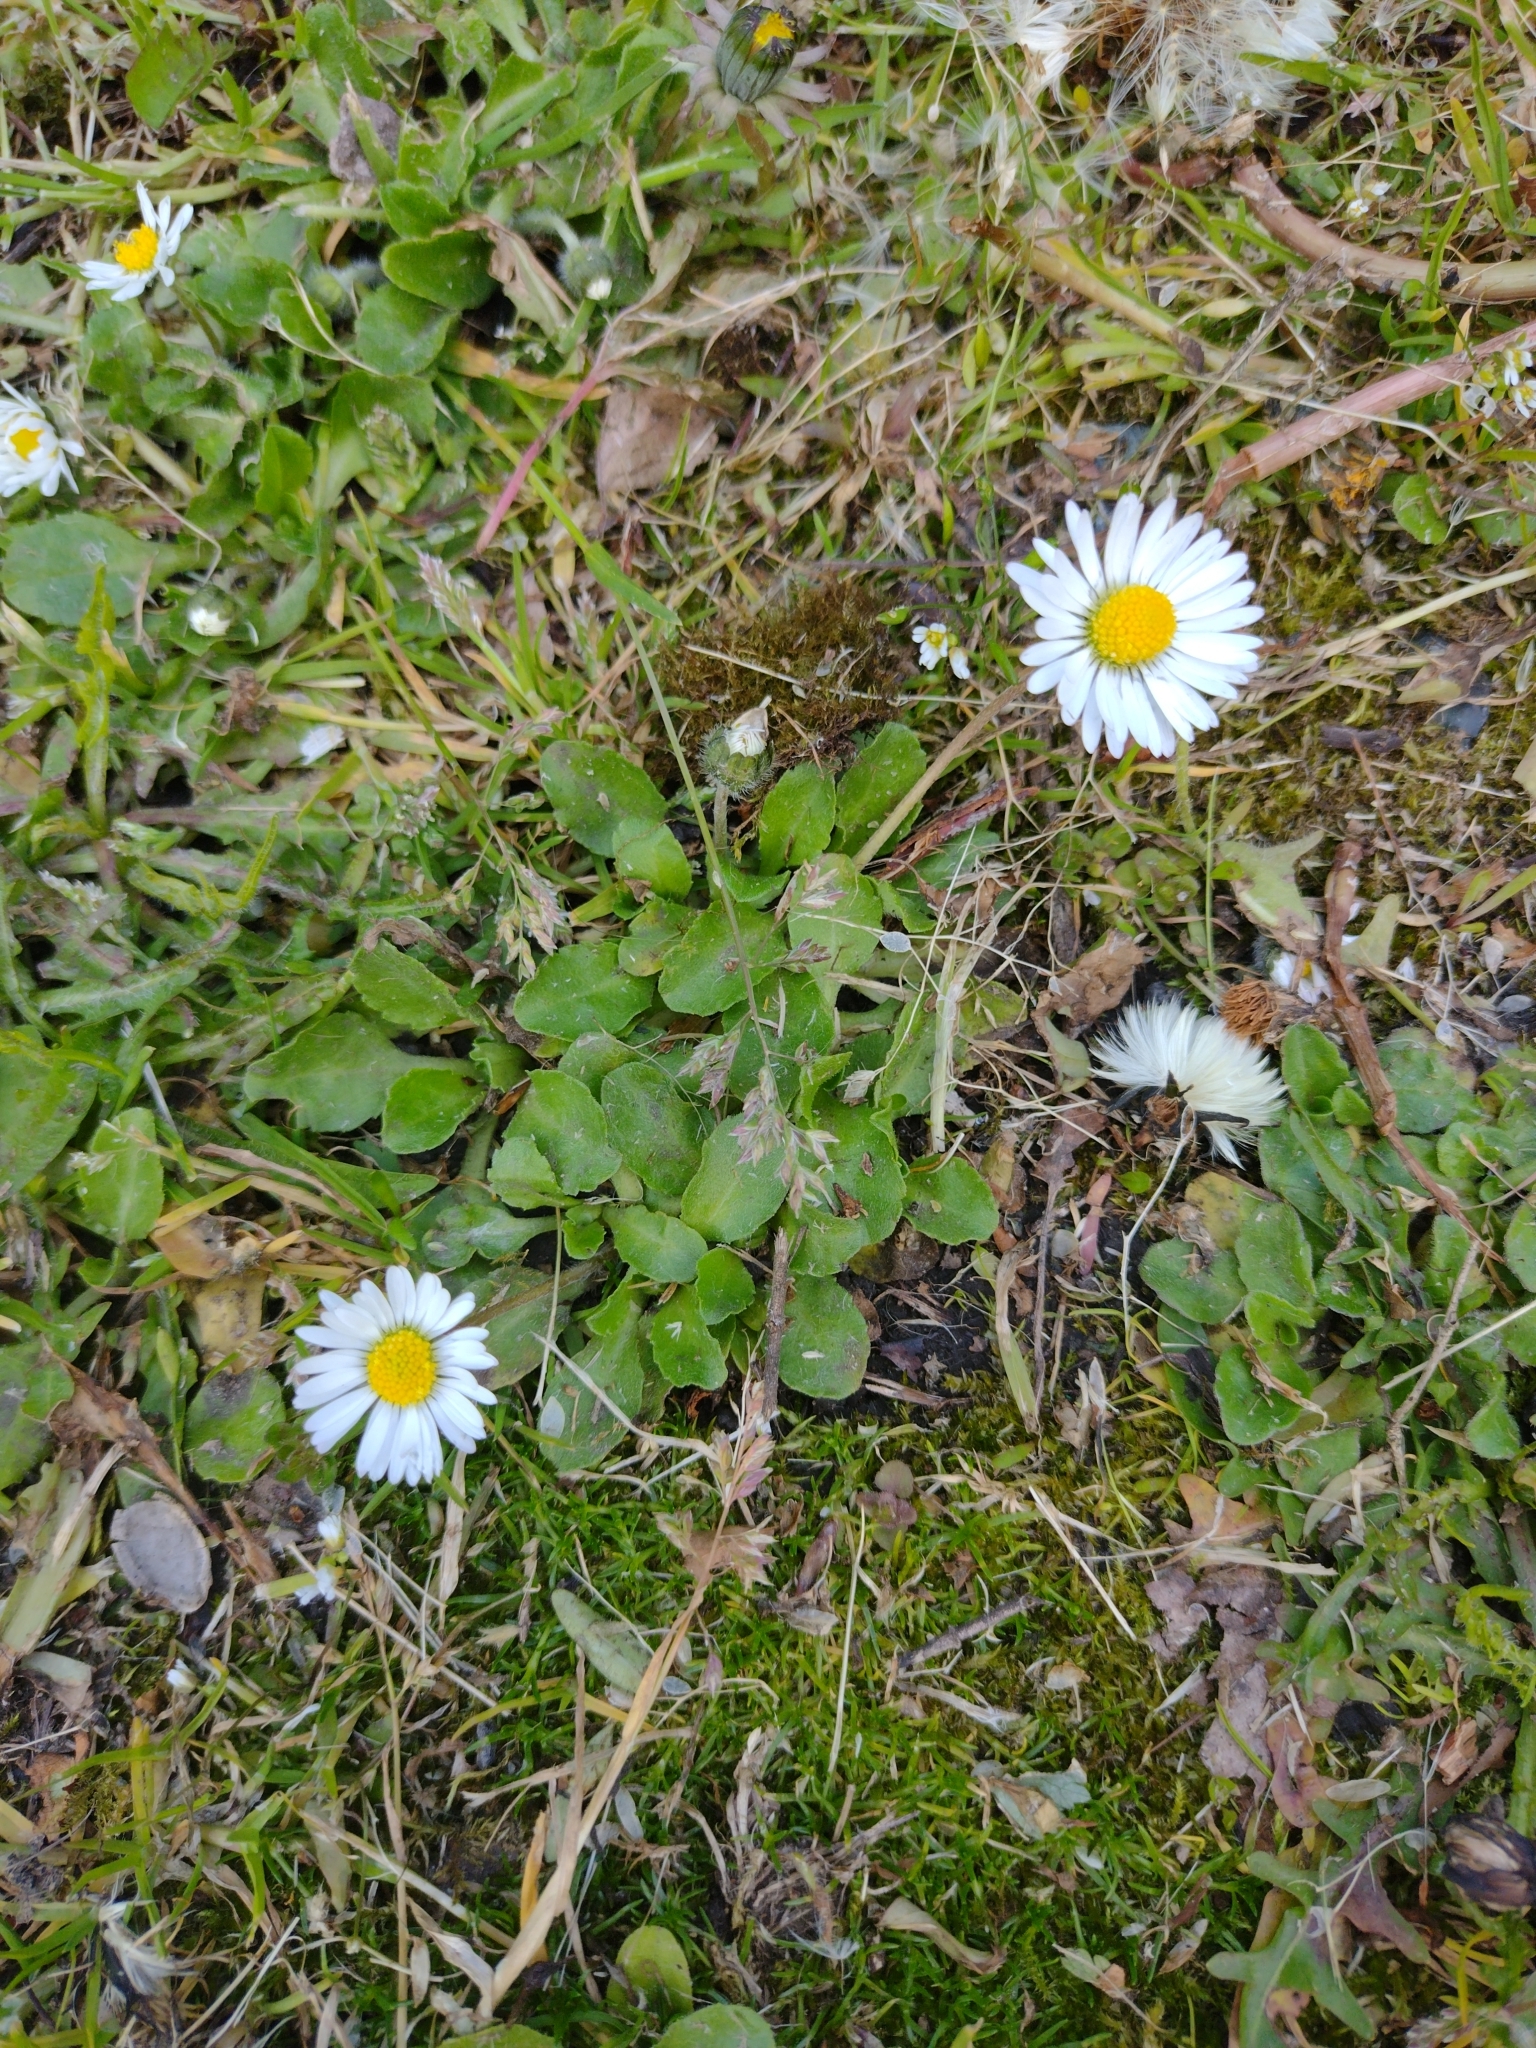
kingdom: Plantae
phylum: Tracheophyta
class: Magnoliopsida
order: Asterales
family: Asteraceae
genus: Bellis
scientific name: Bellis perennis
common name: Lawndaisy
